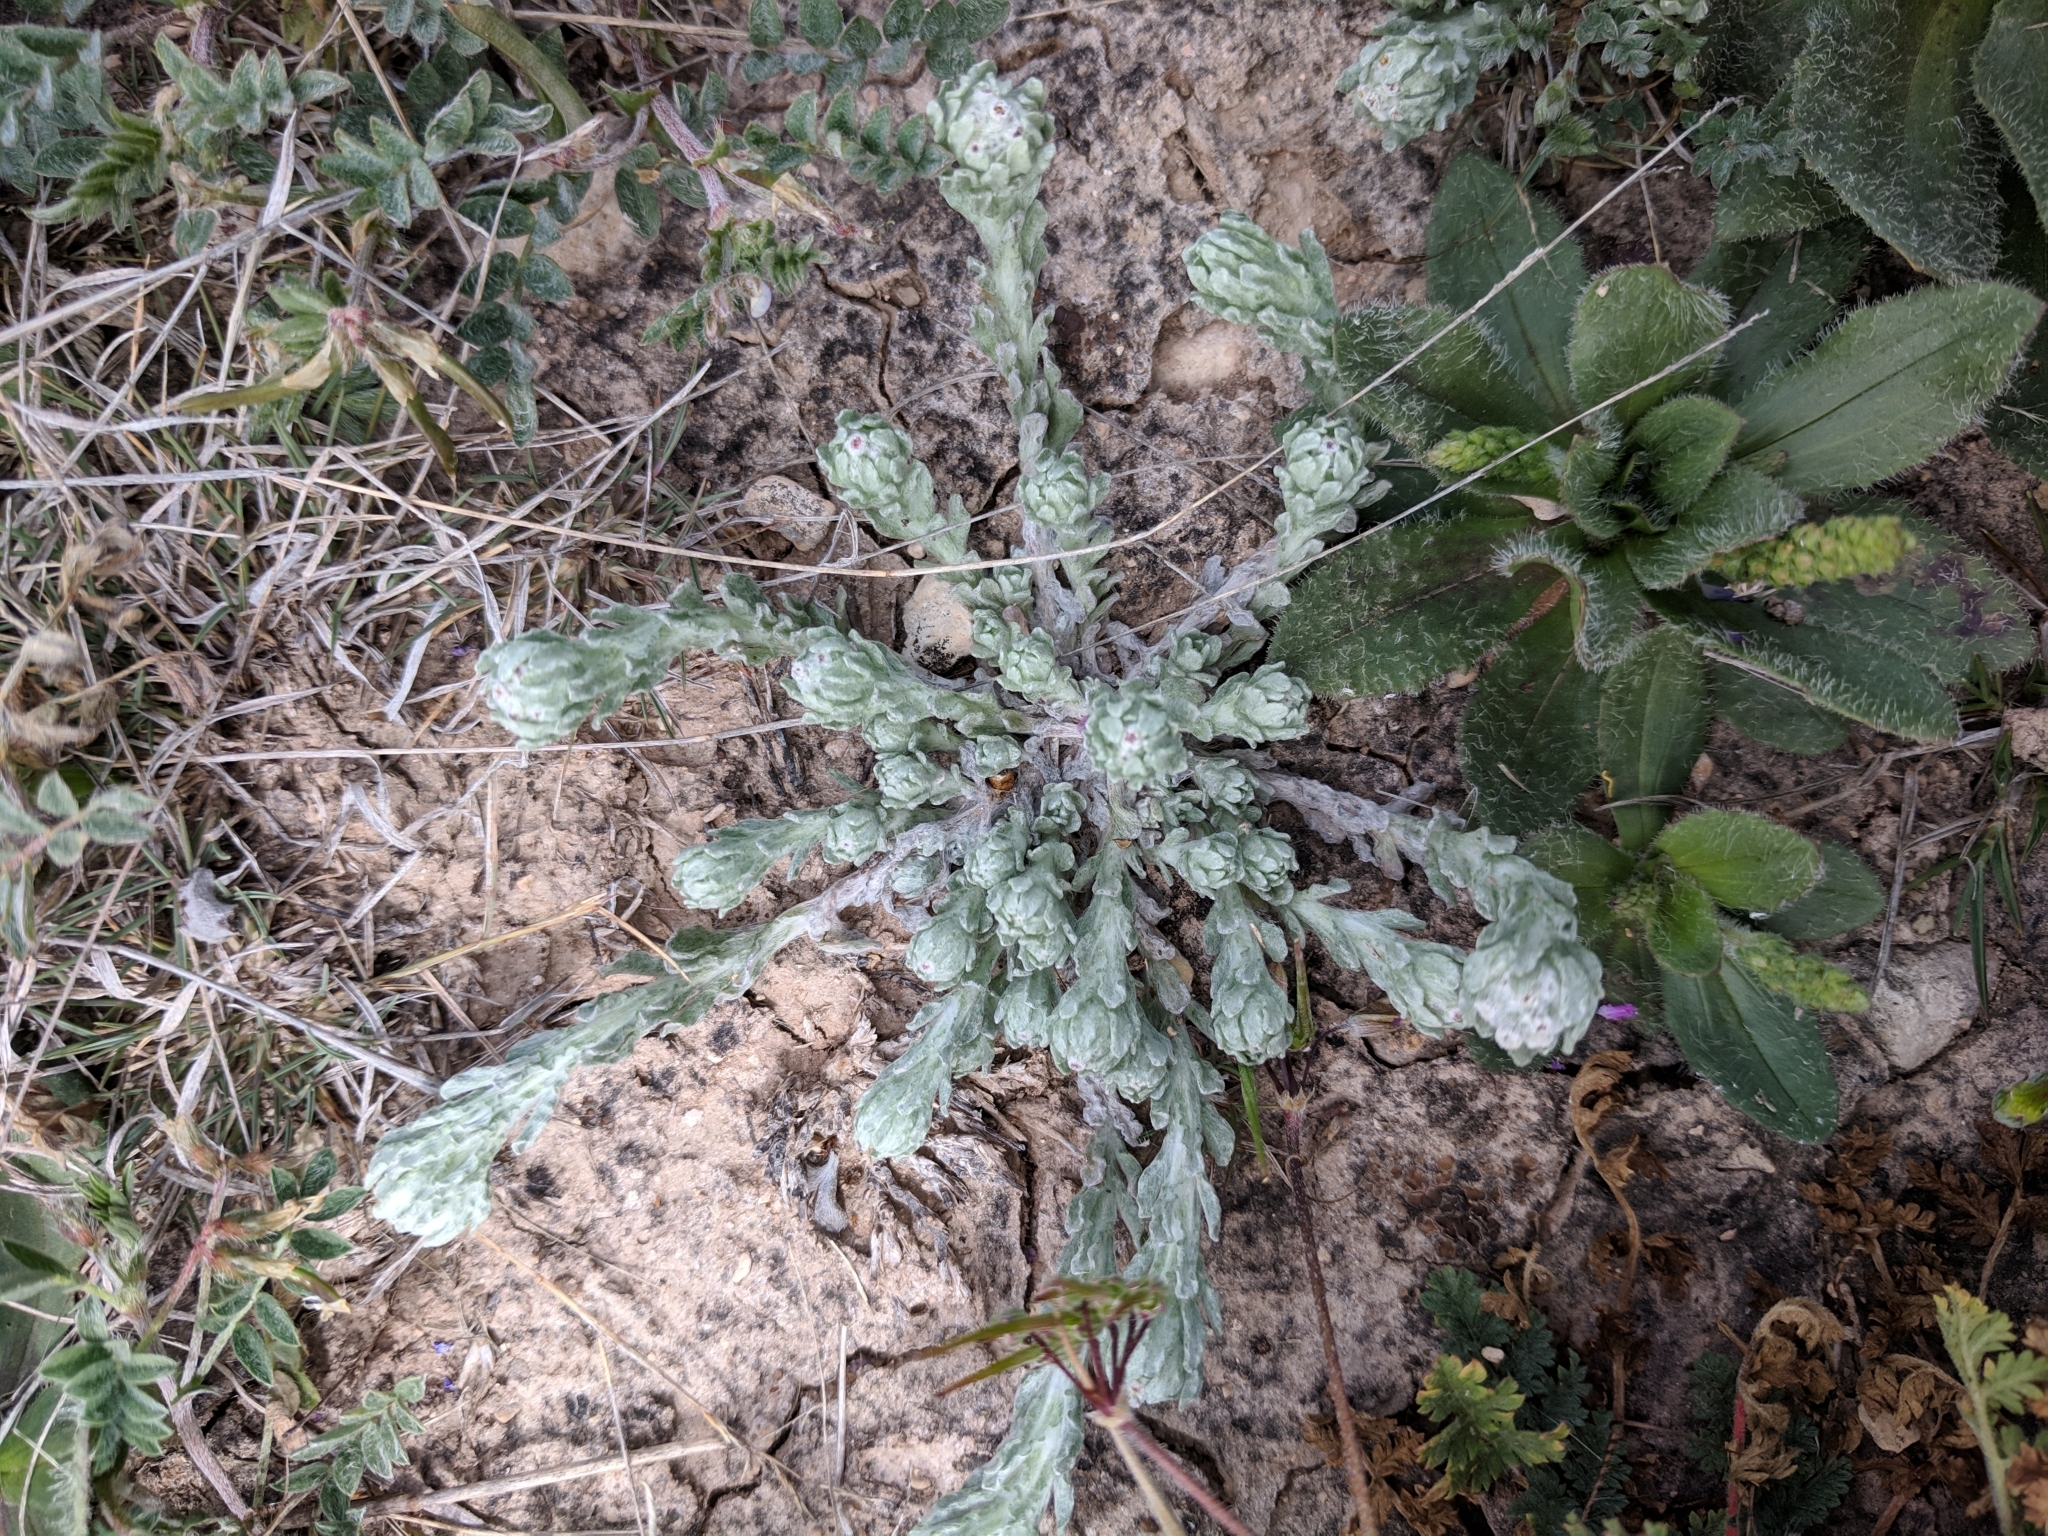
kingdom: Plantae
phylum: Tracheophyta
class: Magnoliopsida
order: Asterales
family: Asteraceae
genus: Diaperia
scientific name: Diaperia verna
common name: Many-stem rabbit-tobacco
